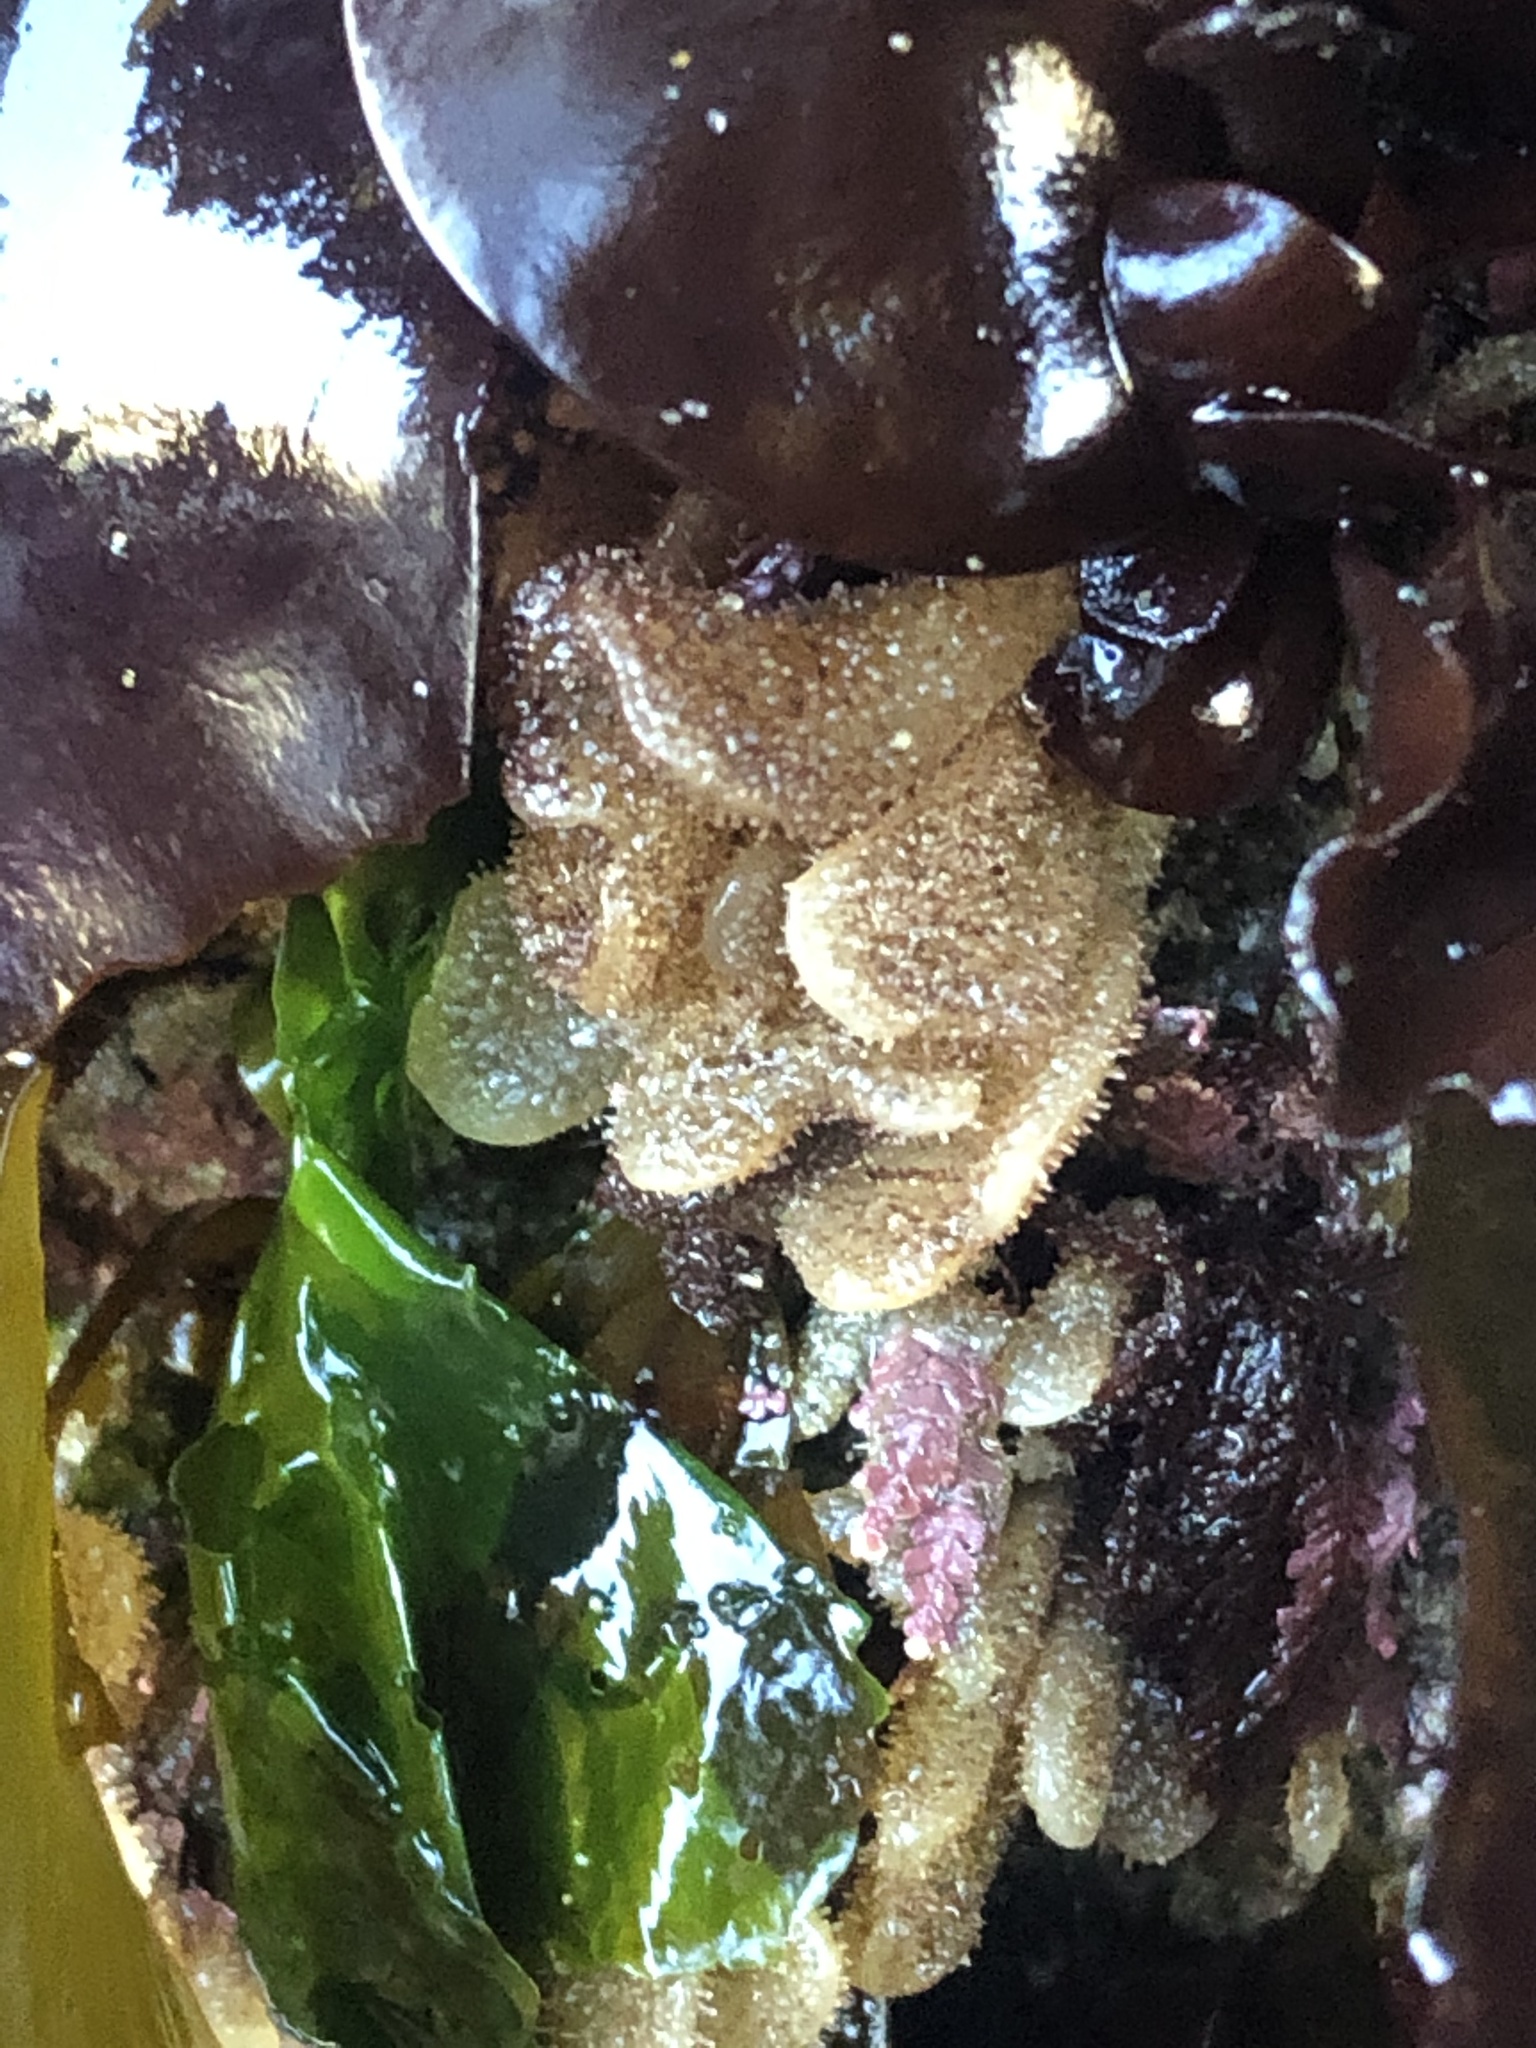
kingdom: Animalia
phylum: Bryozoa
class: Gymnolaemata
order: Ctenostomatida
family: Flustrellidridae
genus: Flustrellidra
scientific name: Flustrellidra corniculata
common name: Spiny leather bryozoan
